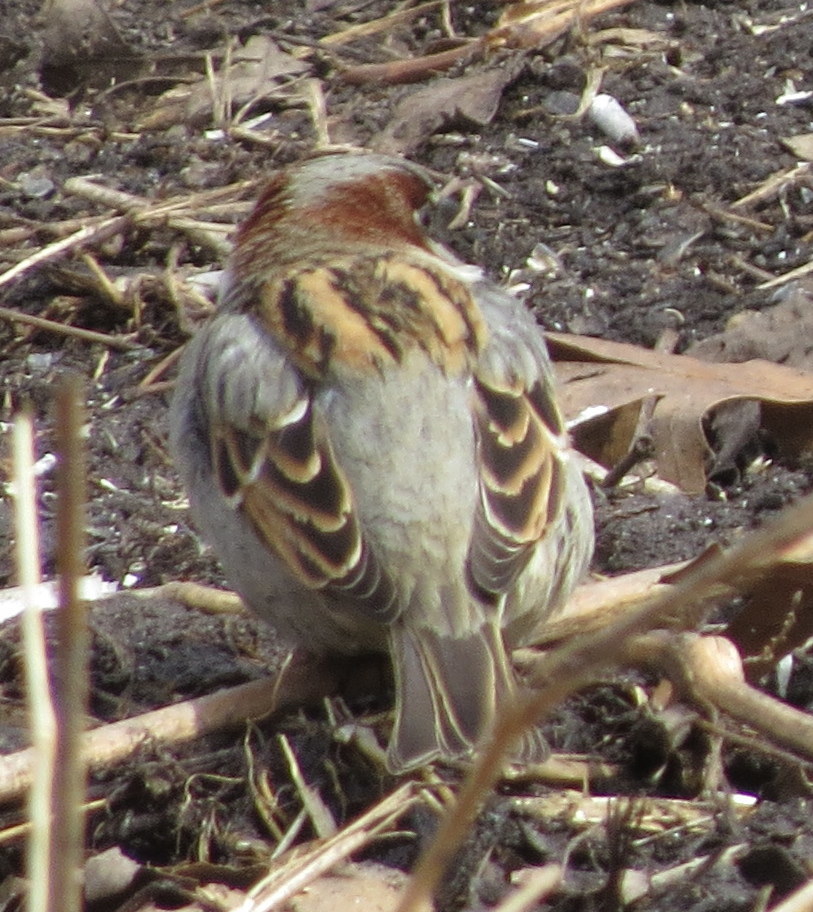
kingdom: Animalia
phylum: Chordata
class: Aves
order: Passeriformes
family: Passeridae
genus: Passer
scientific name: Passer domesticus
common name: House sparrow
